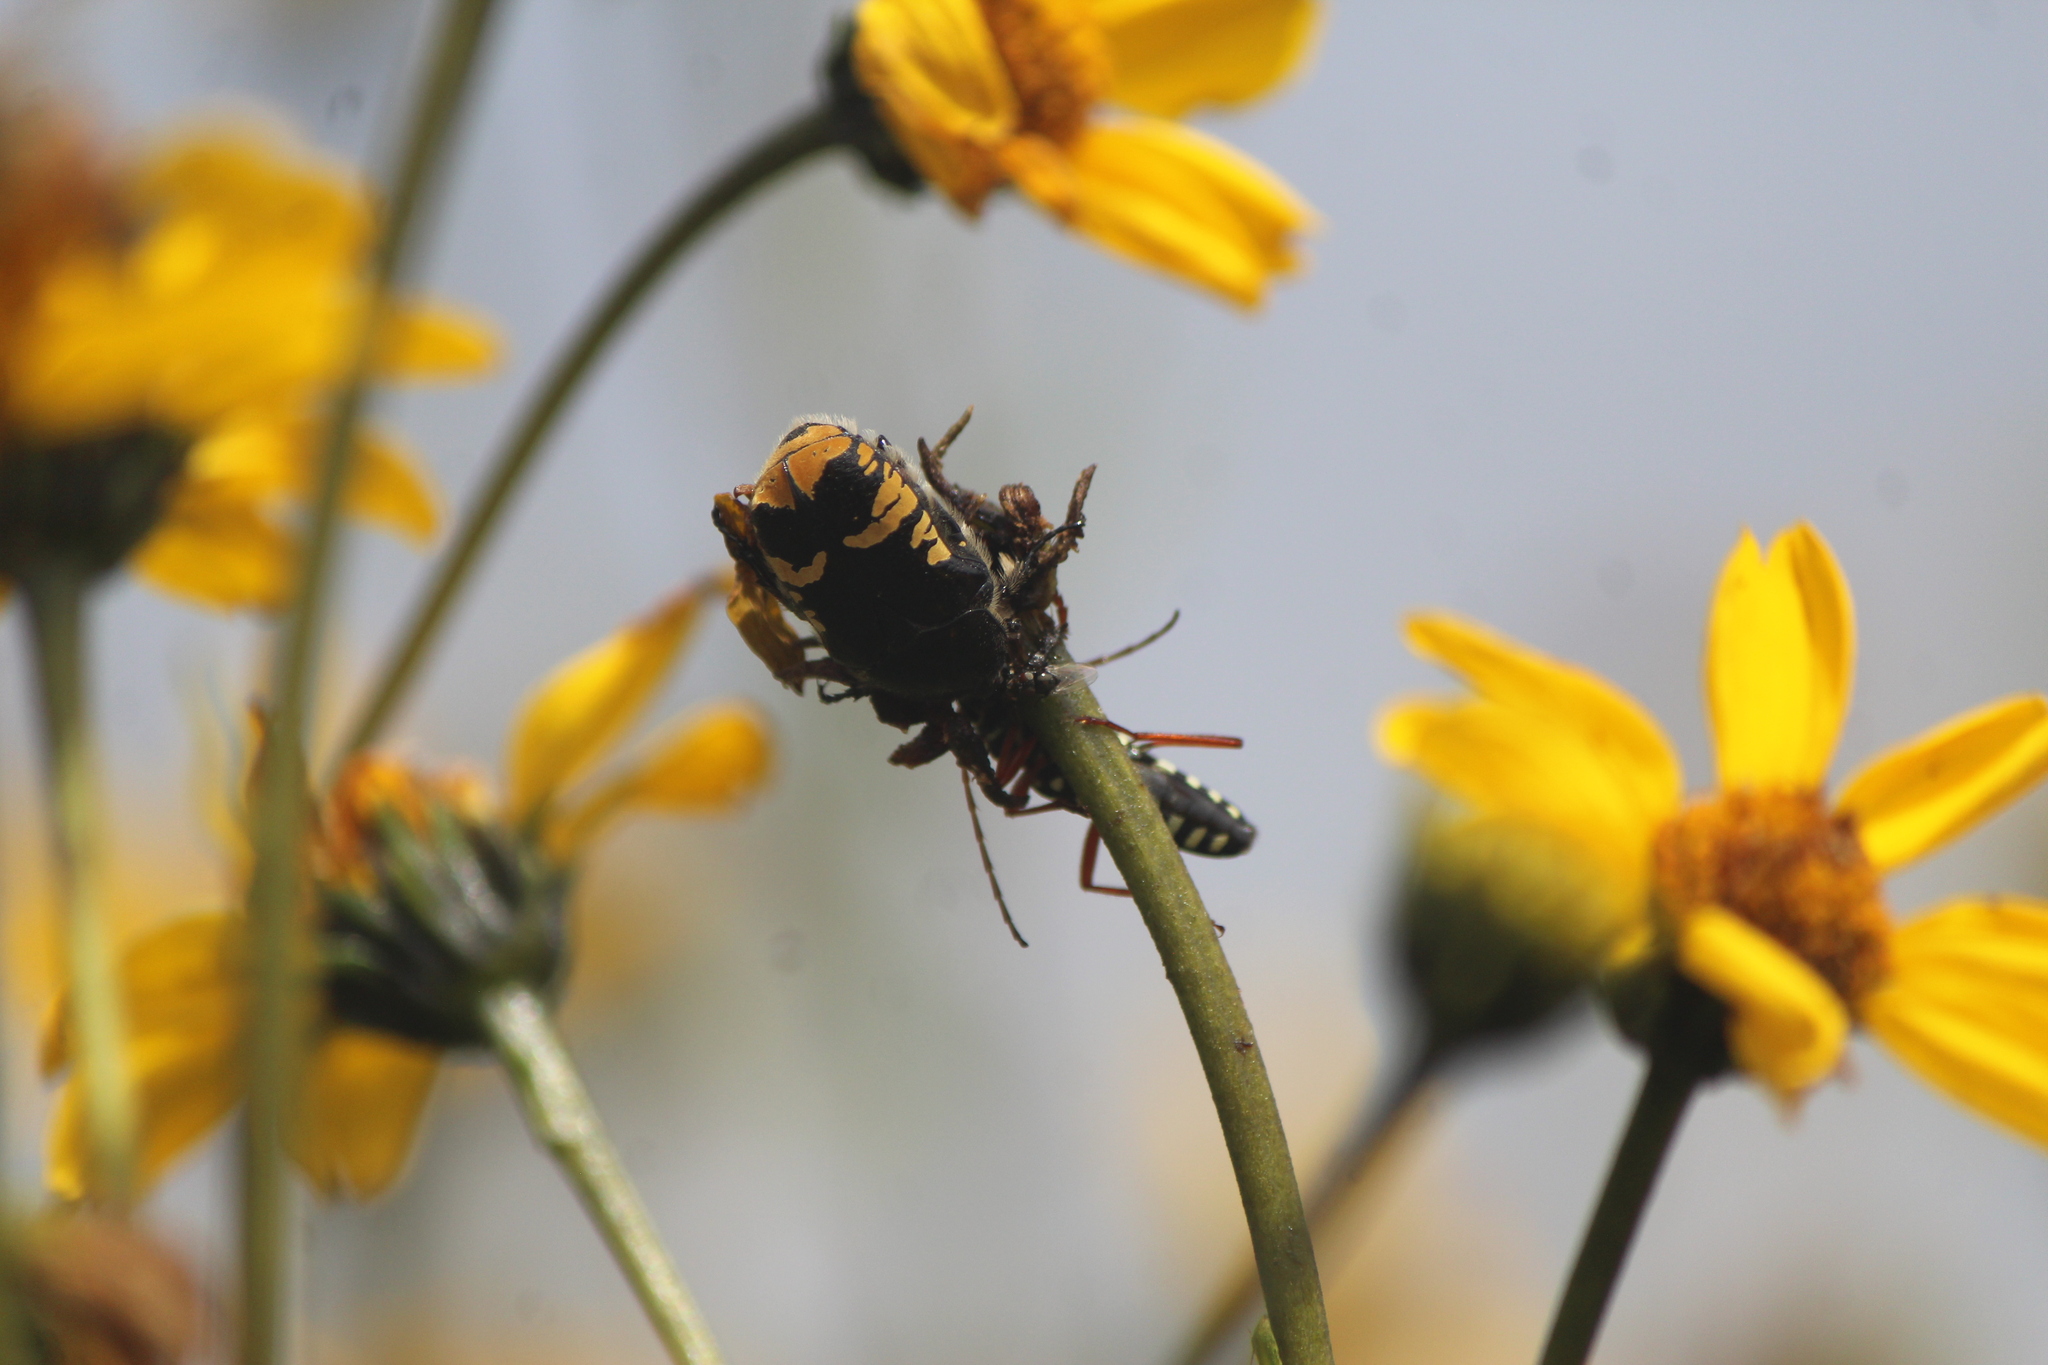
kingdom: Animalia
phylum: Arthropoda
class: Insecta
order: Coleoptera
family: Scarabaeidae
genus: Euphoria
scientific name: Euphoria biguttata
